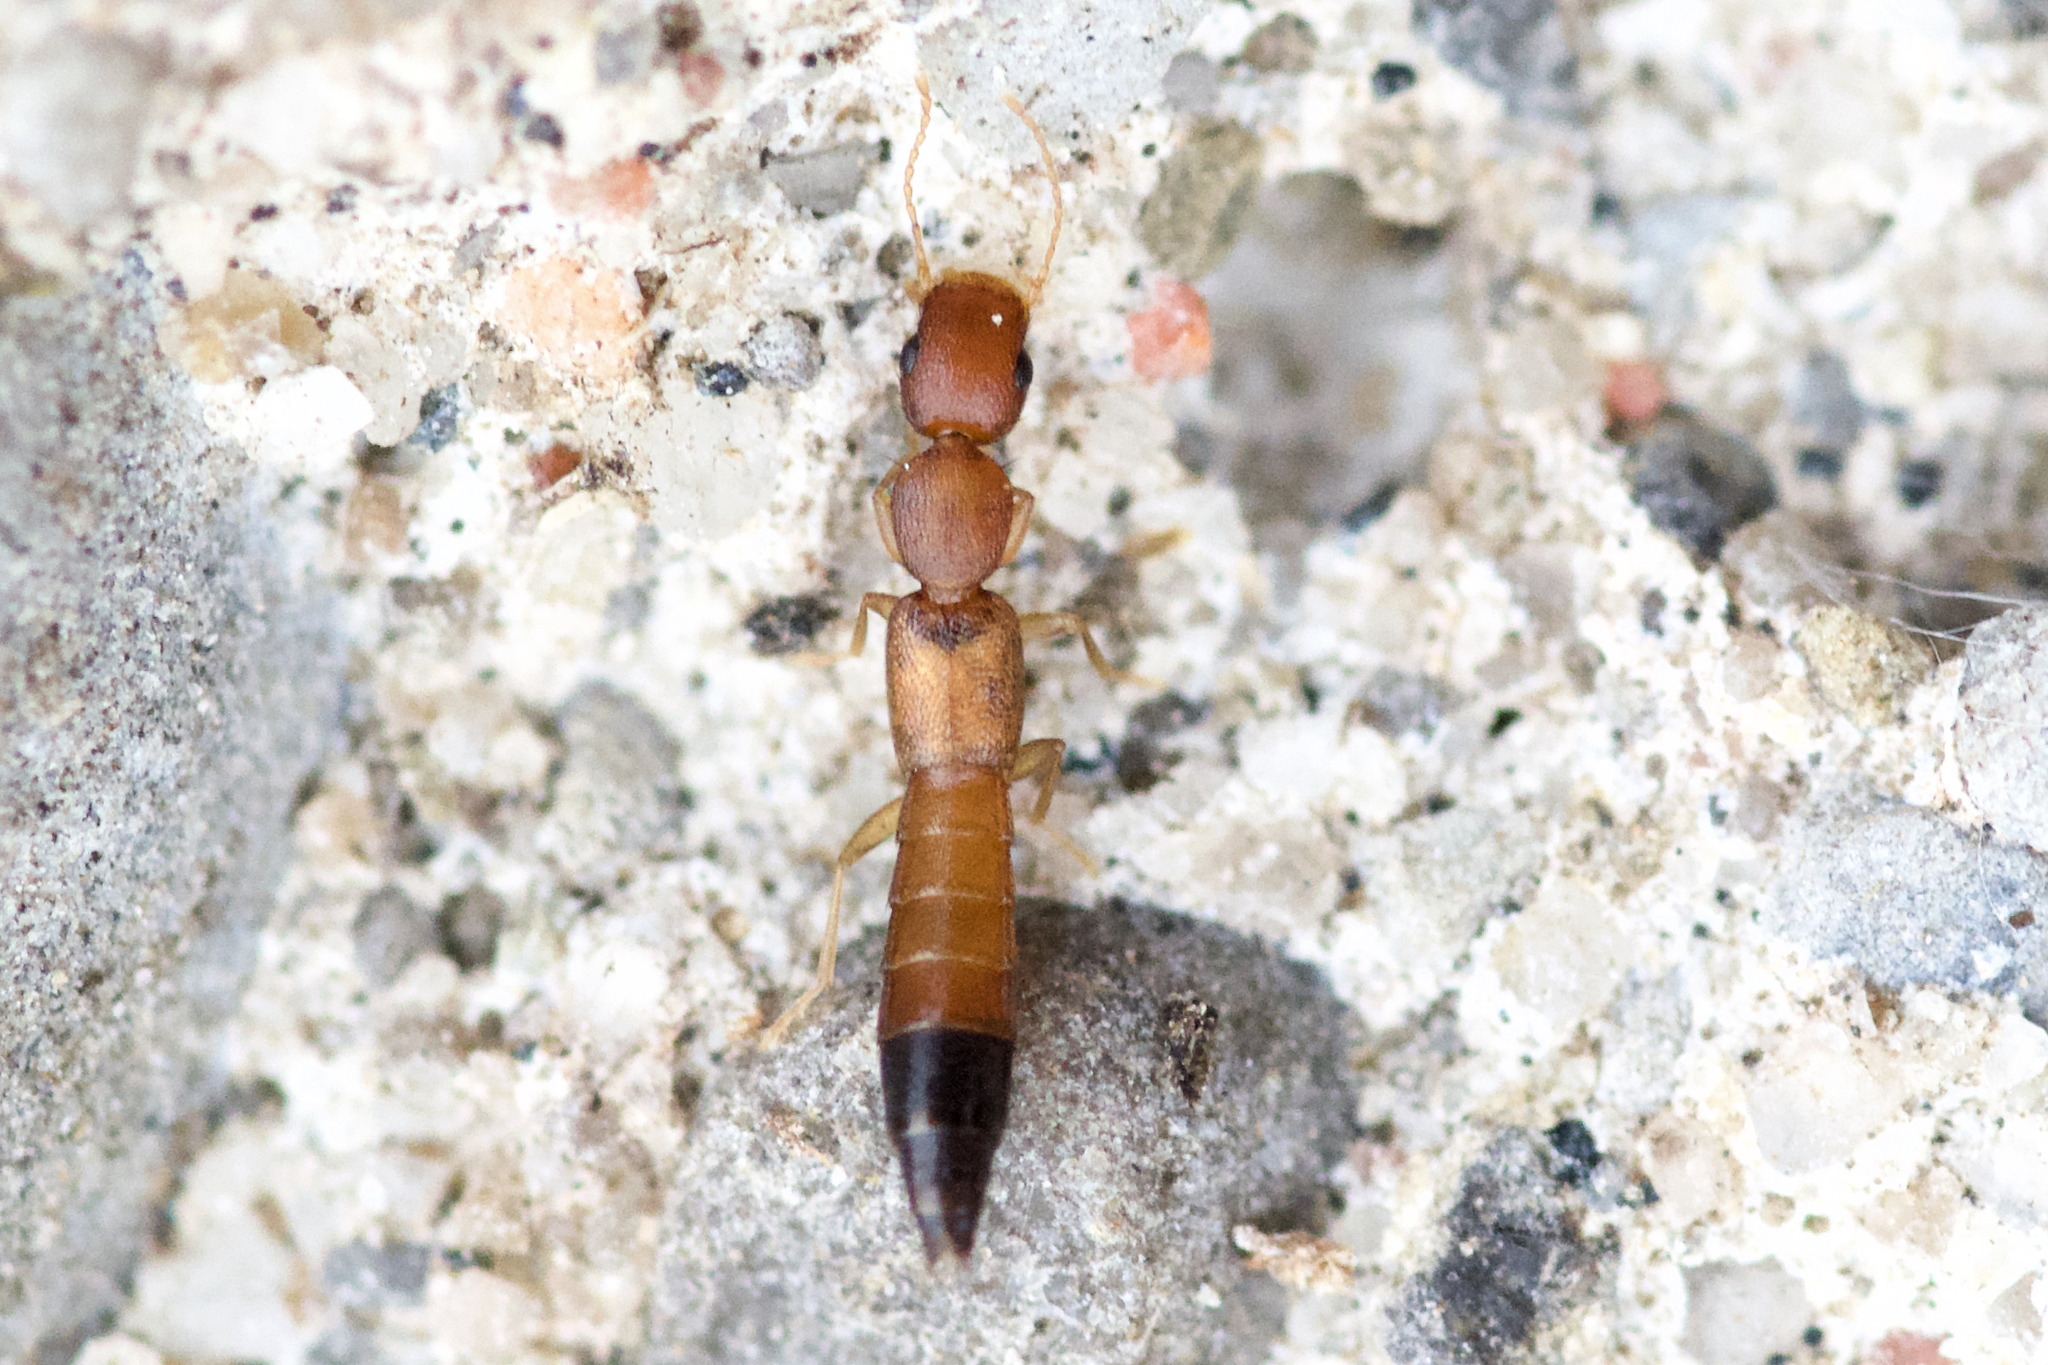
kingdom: Animalia
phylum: Arthropoda
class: Insecta
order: Coleoptera
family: Staphylinidae
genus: Astenus
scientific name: Astenus discopunctatus
